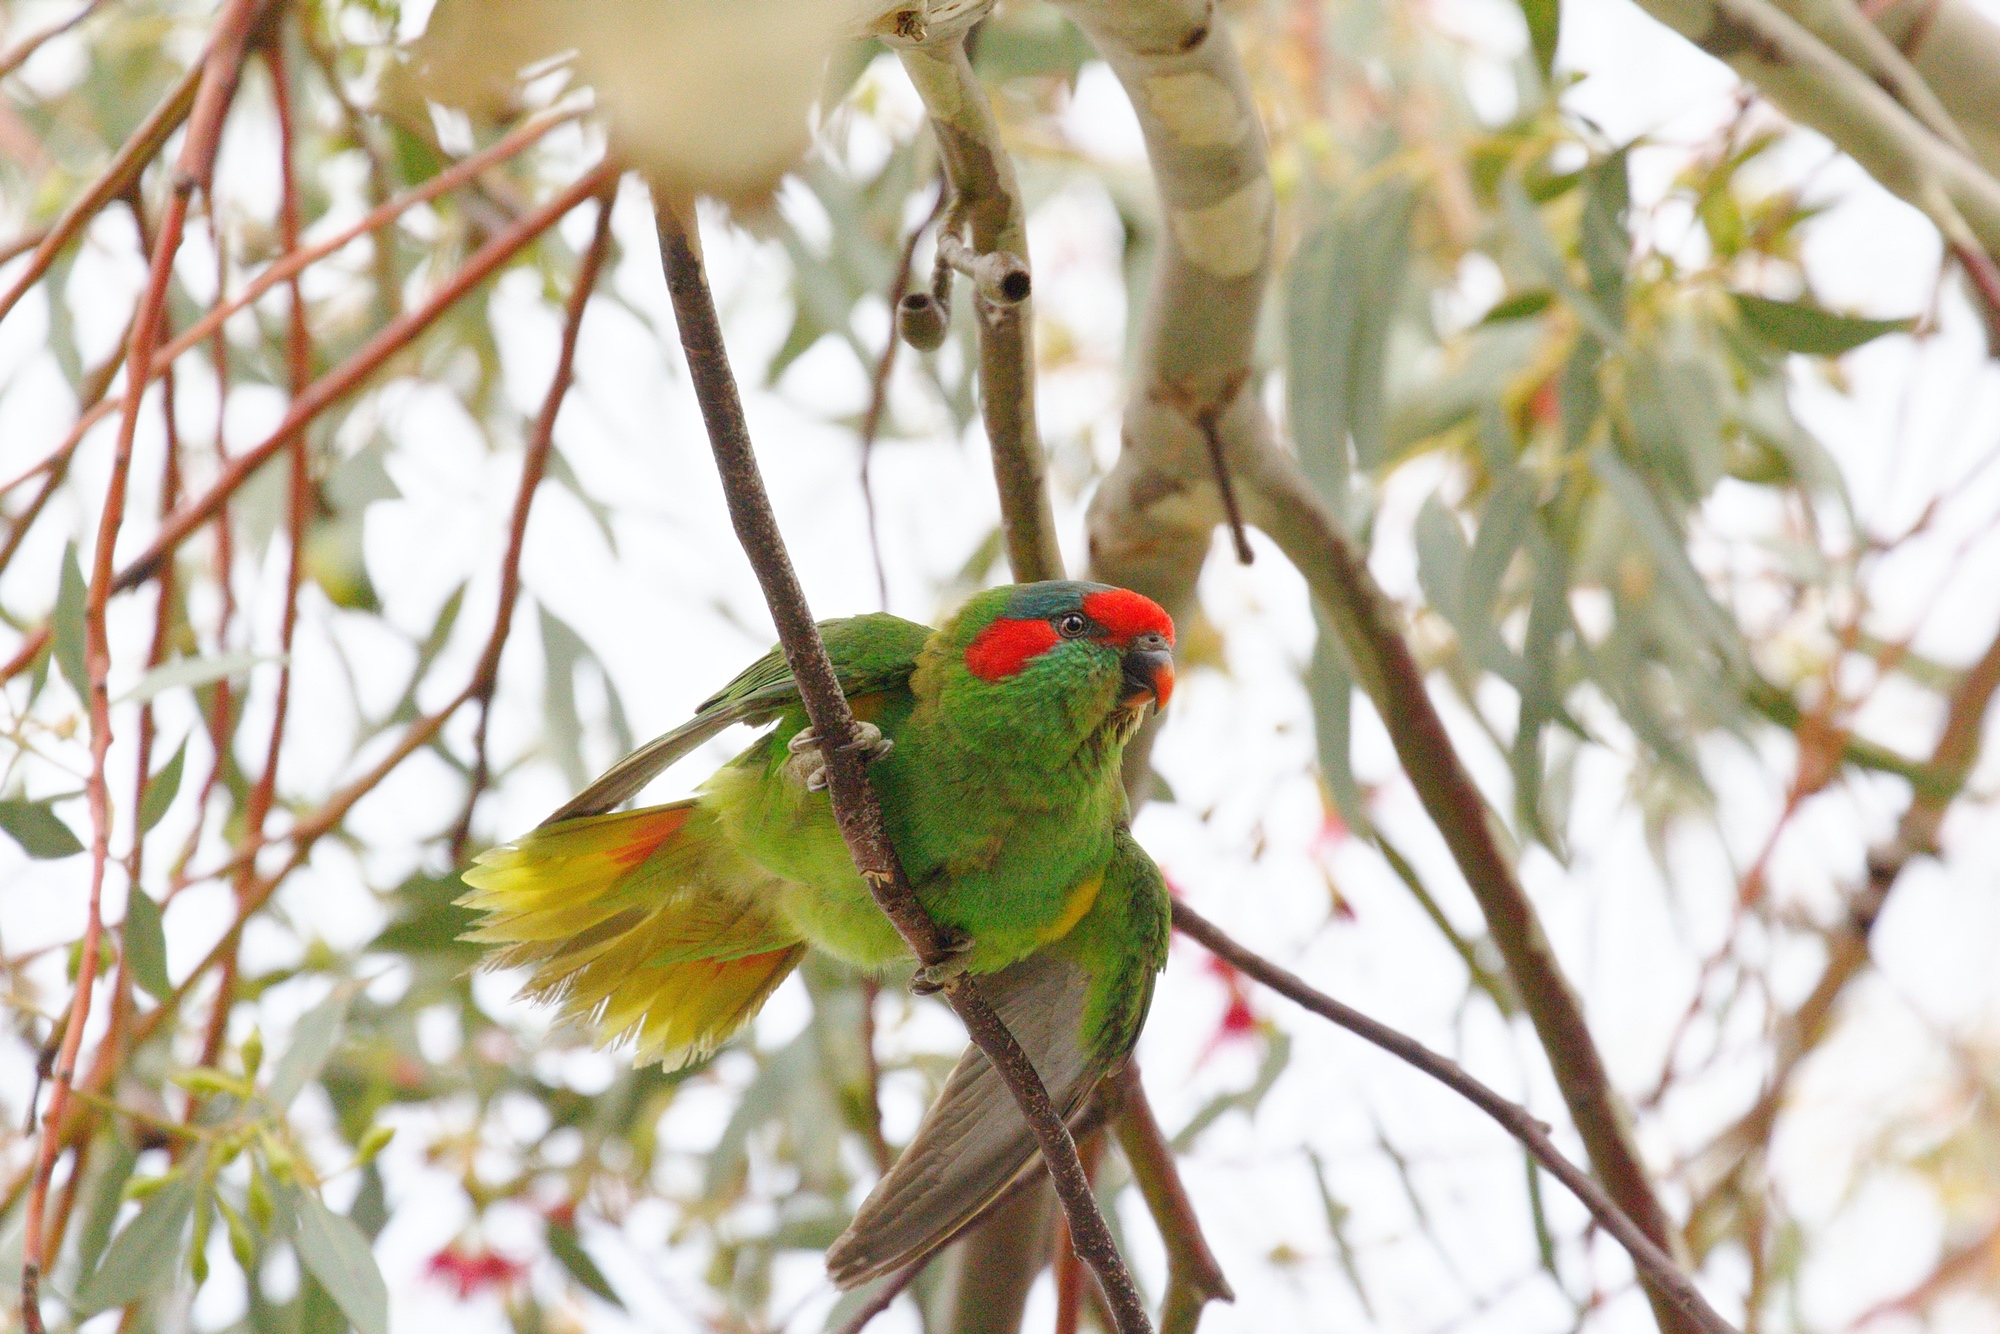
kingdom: Animalia
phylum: Chordata
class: Aves
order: Psittaciformes
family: Psittacidae
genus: Glossopsitta
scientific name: Glossopsitta concinna
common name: Musk lorikeet
